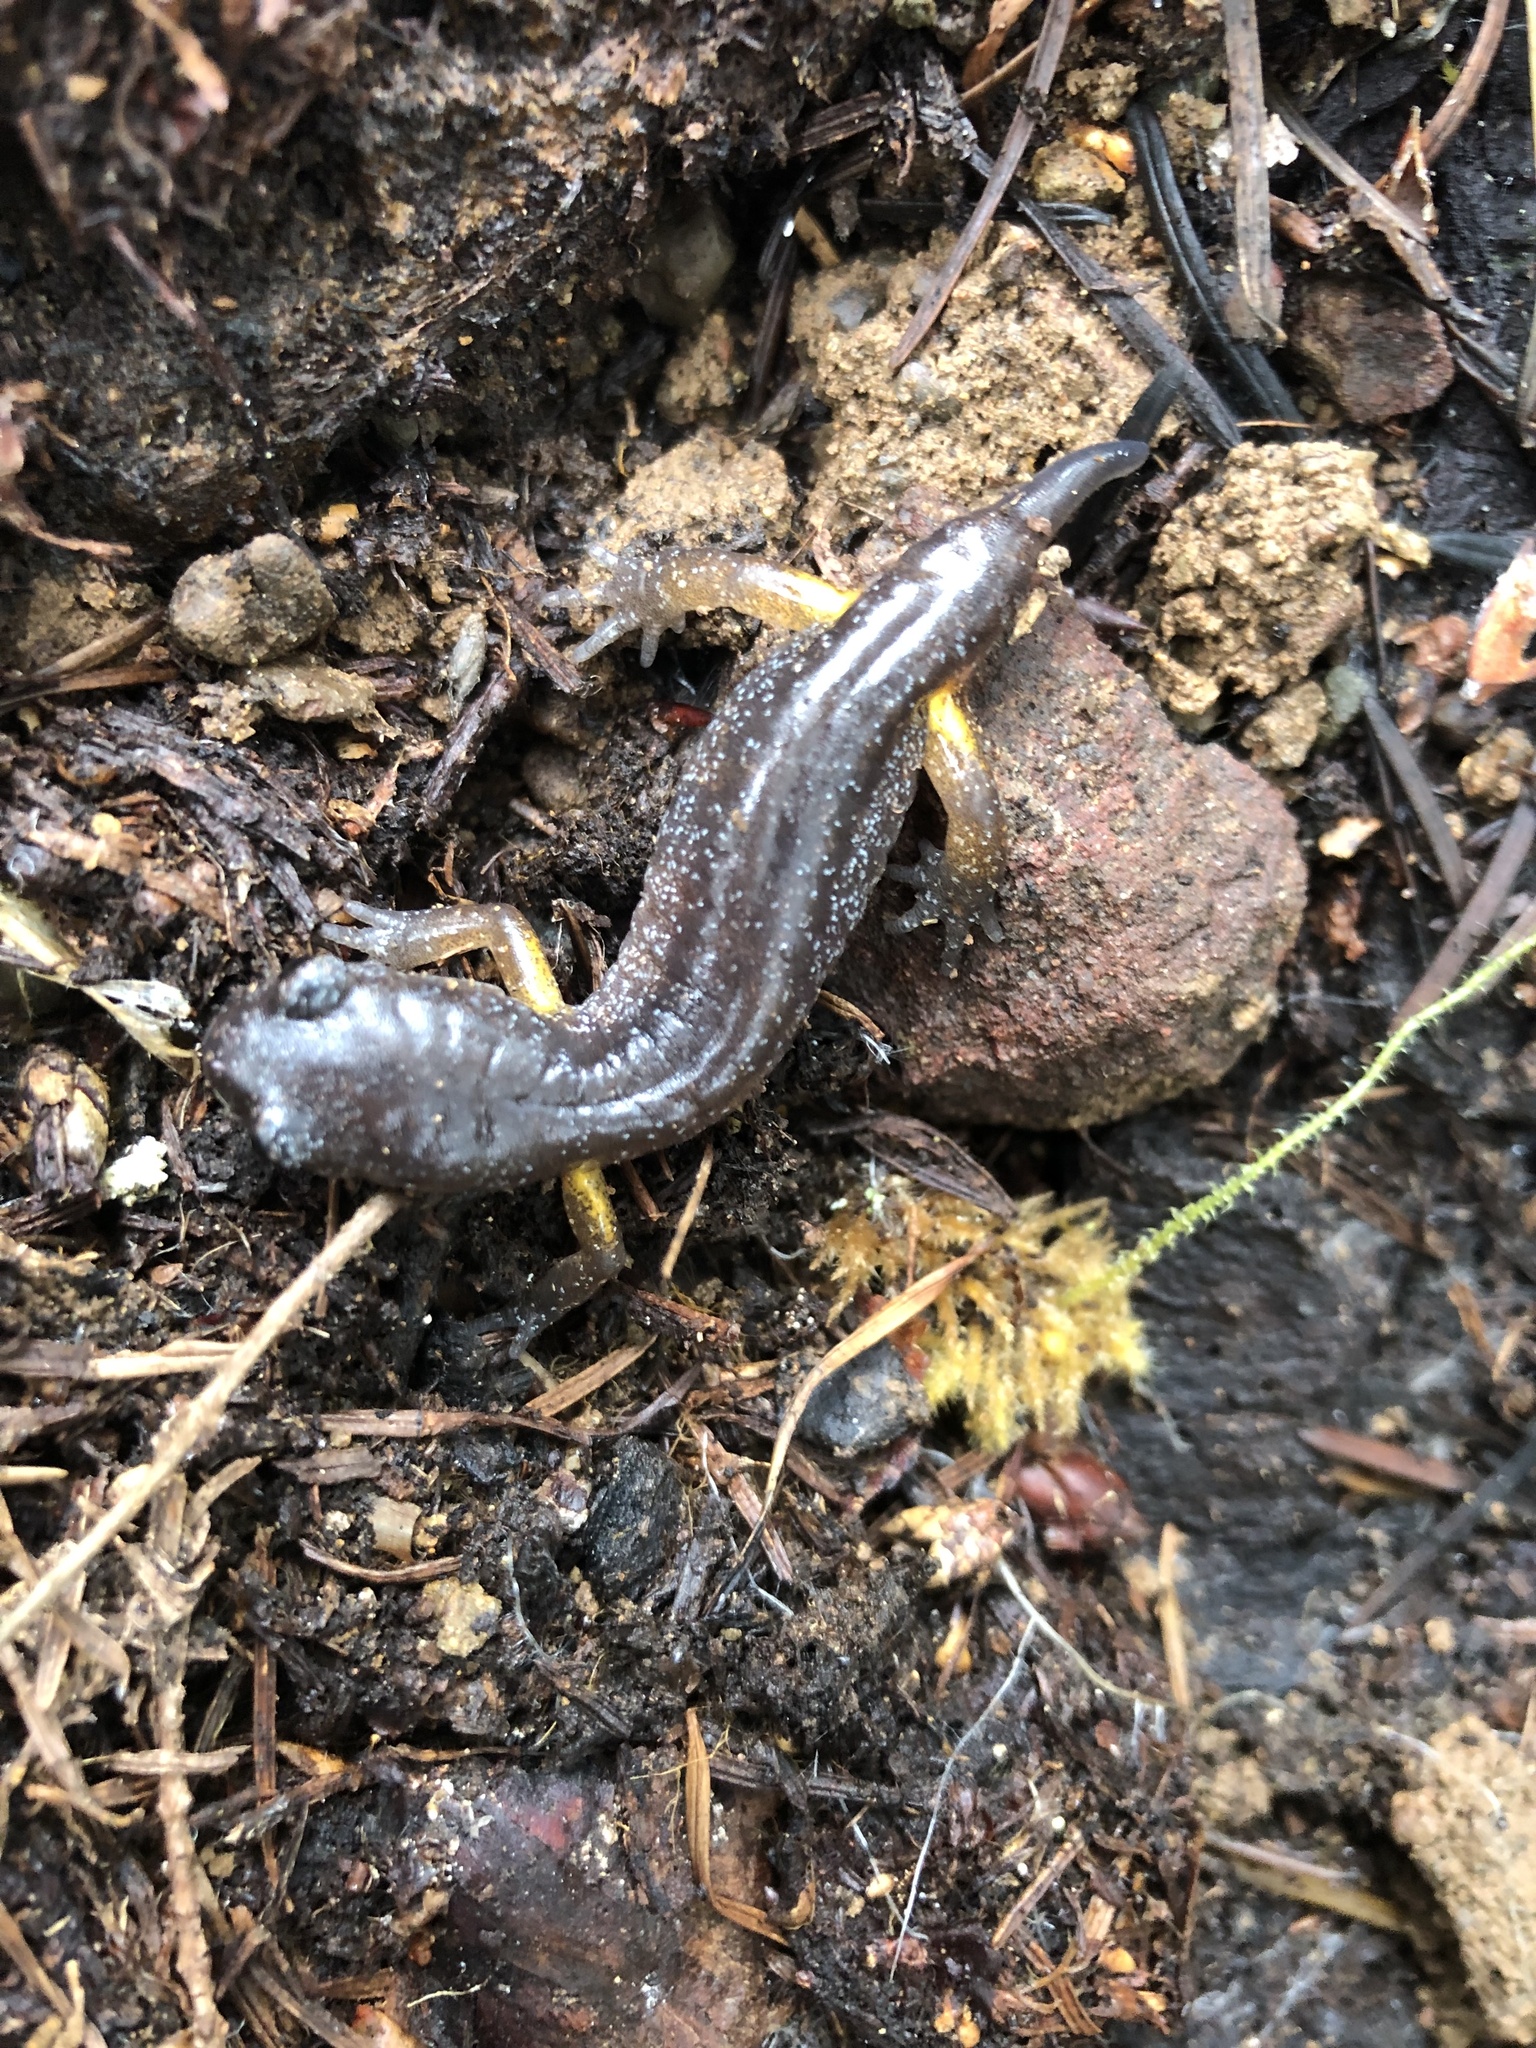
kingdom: Animalia
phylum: Chordata
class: Amphibia
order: Caudata
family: Plethodontidae
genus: Ensatina
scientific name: Ensatina eschscholtzii
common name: Ensatina
